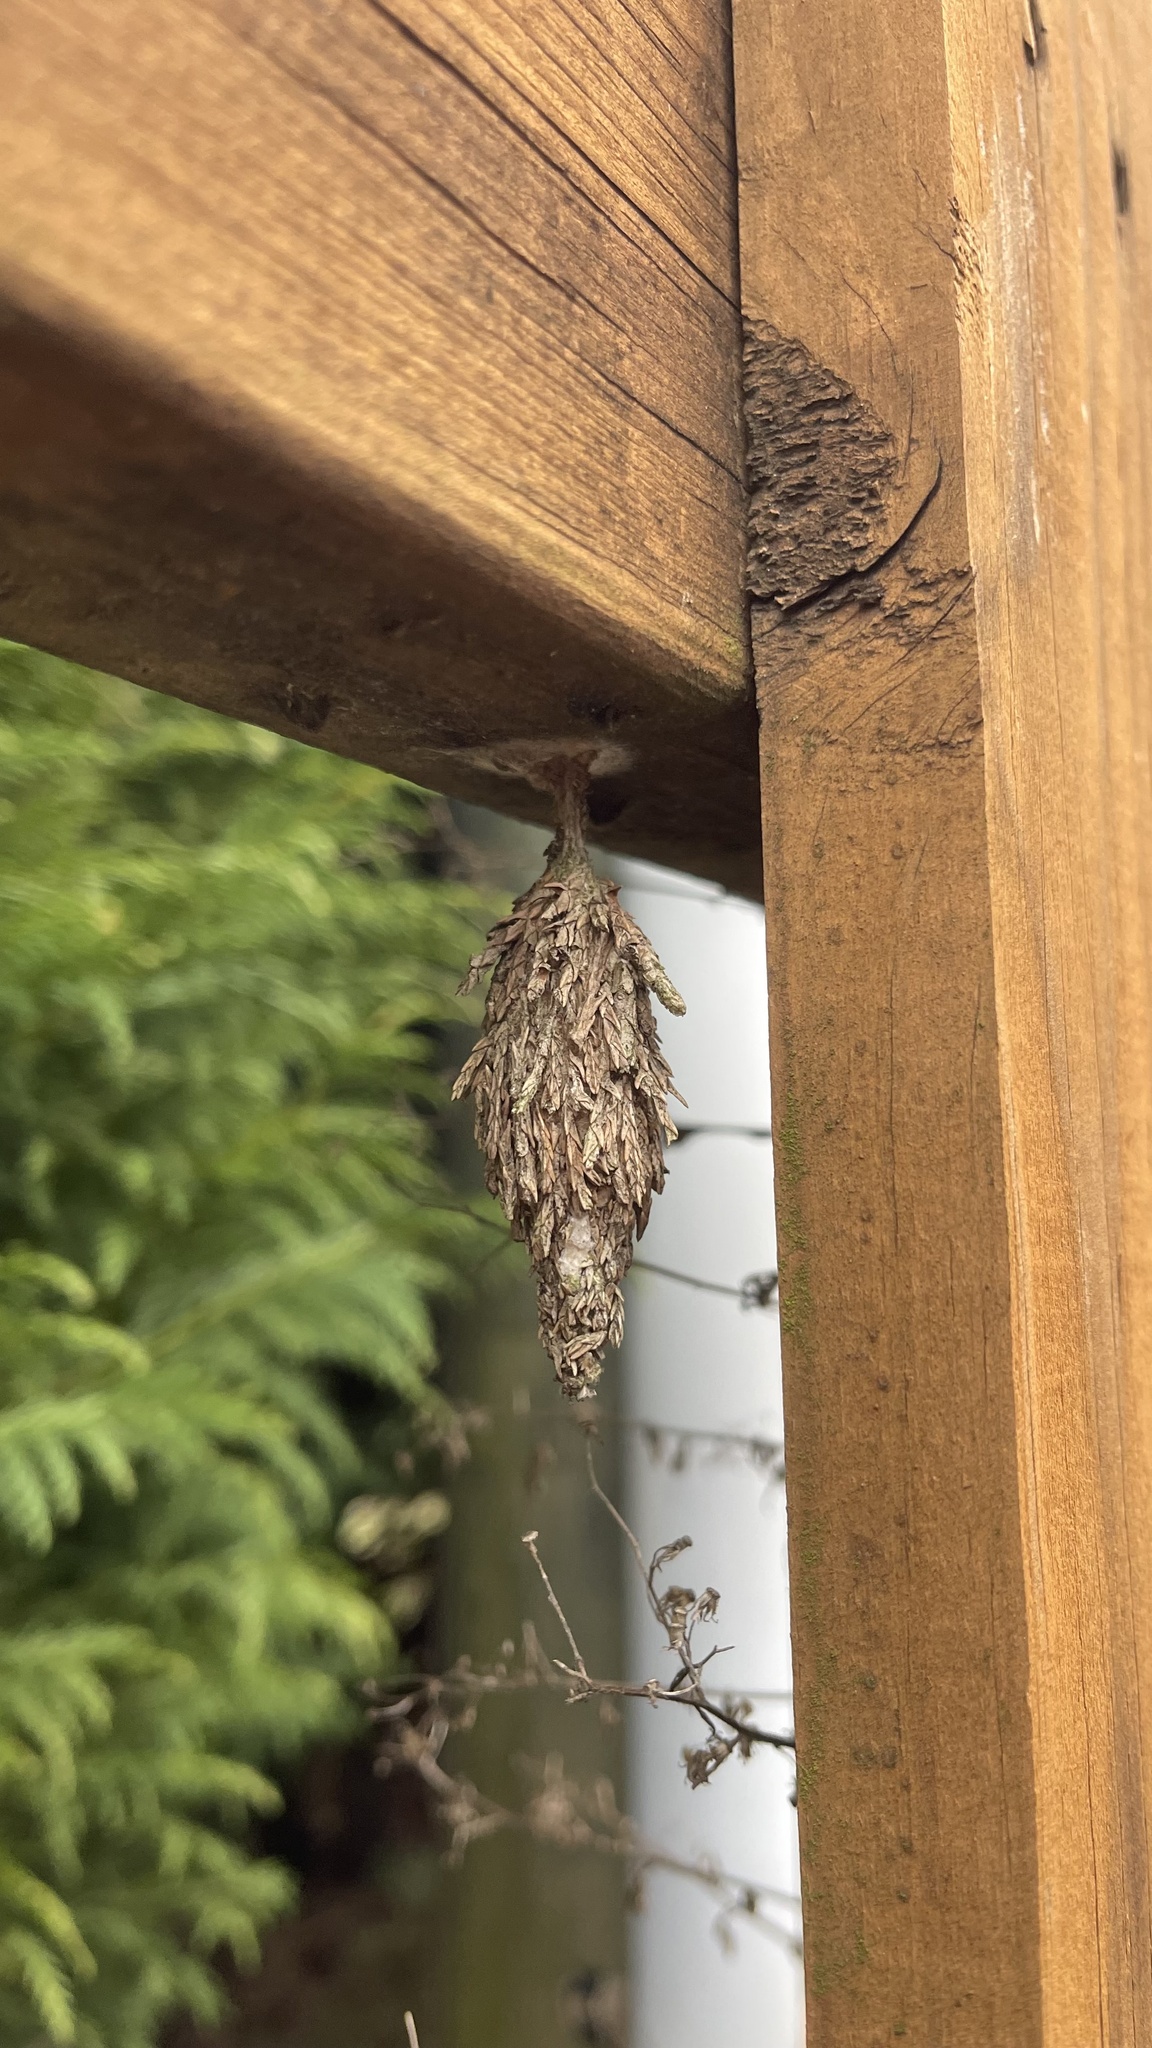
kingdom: Animalia
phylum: Arthropoda
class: Insecta
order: Lepidoptera
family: Psychidae
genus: Thyridopteryx
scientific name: Thyridopteryx ephemeraeformis
